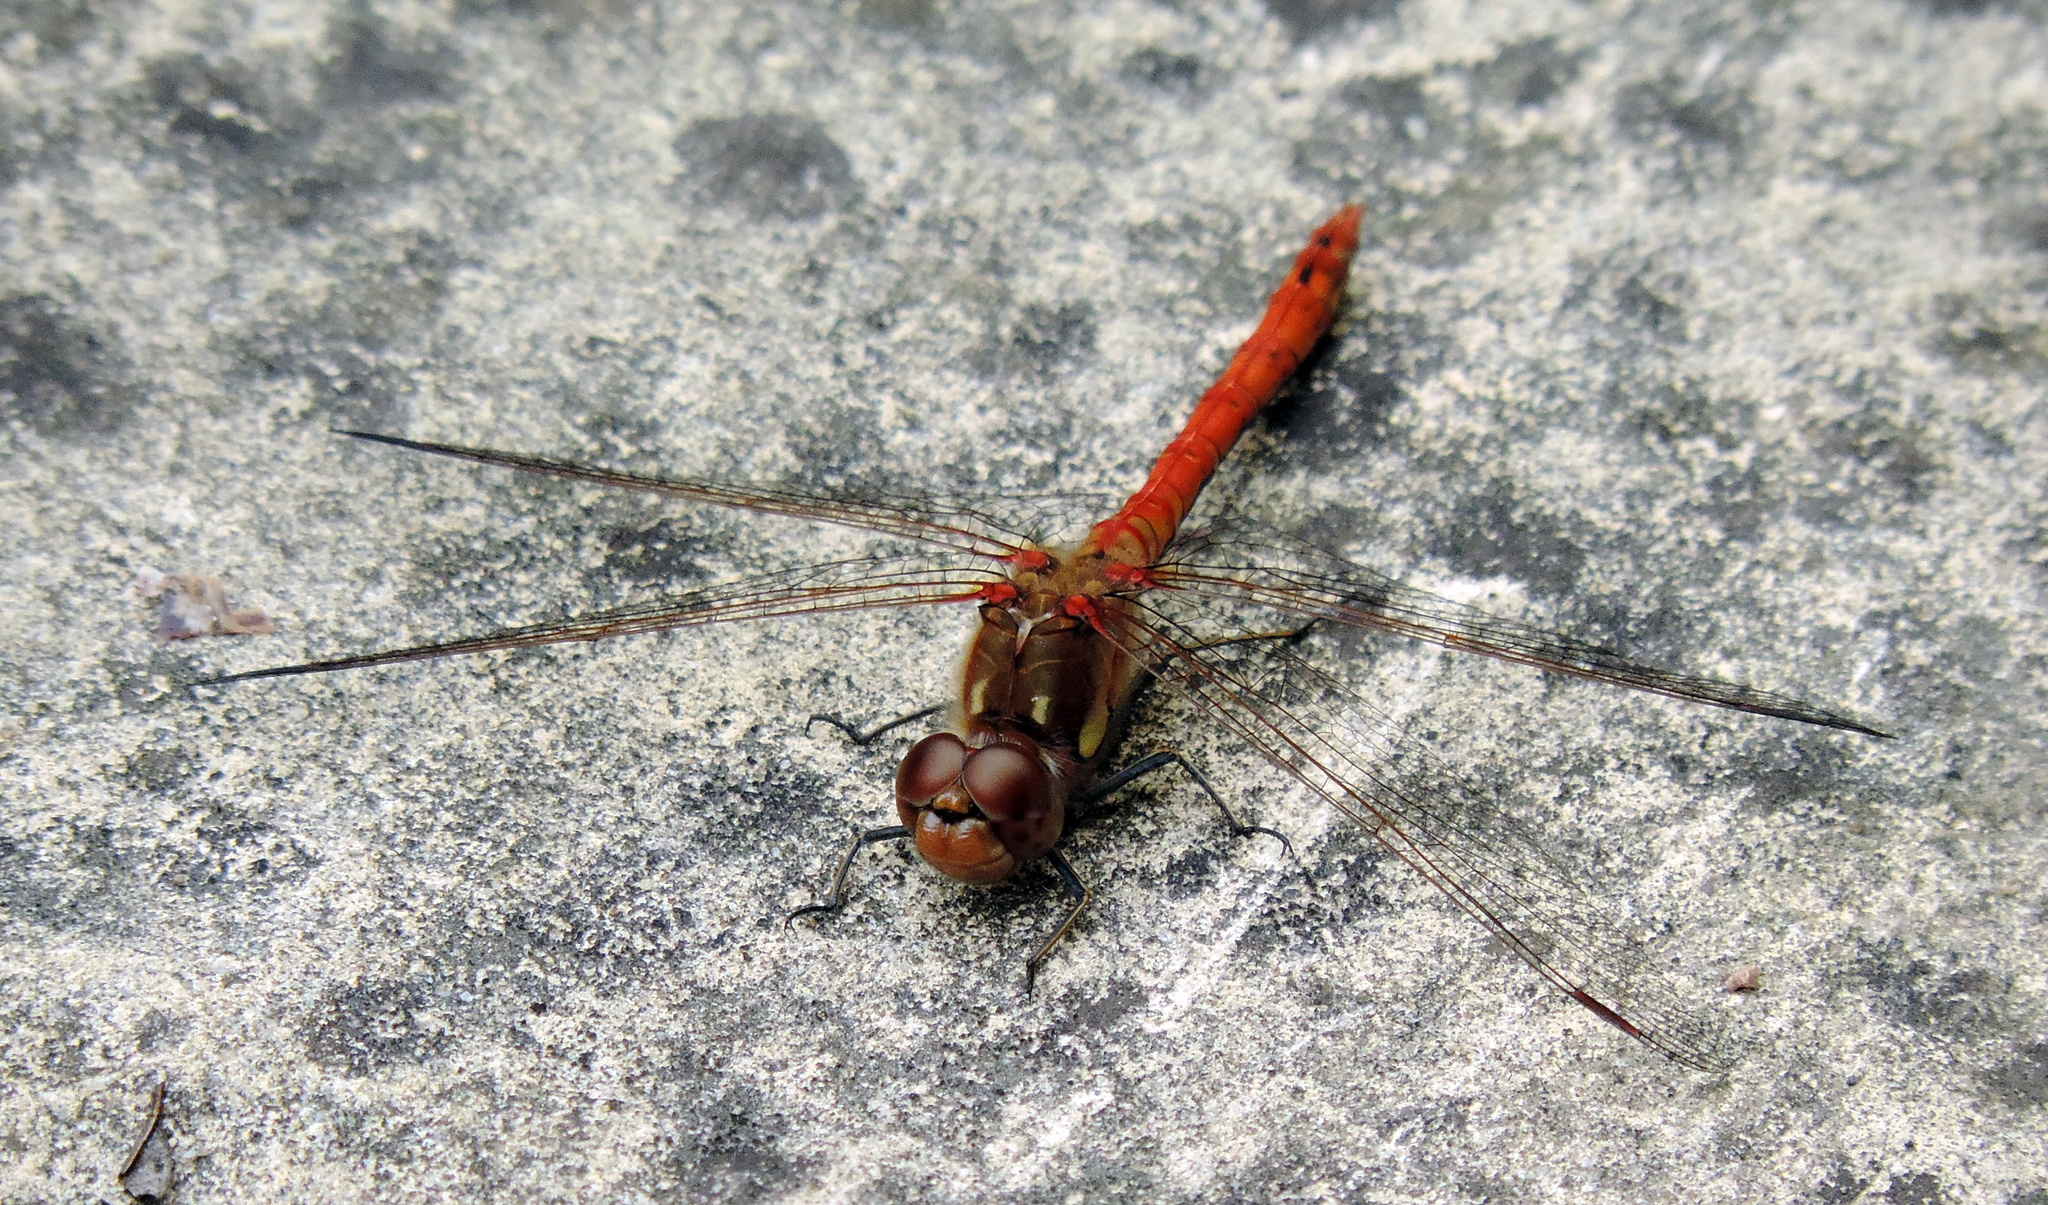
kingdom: Animalia
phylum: Arthropoda
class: Insecta
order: Odonata
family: Libellulidae
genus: Sympetrum
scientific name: Sympetrum sanguineum
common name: Ruddy darter
